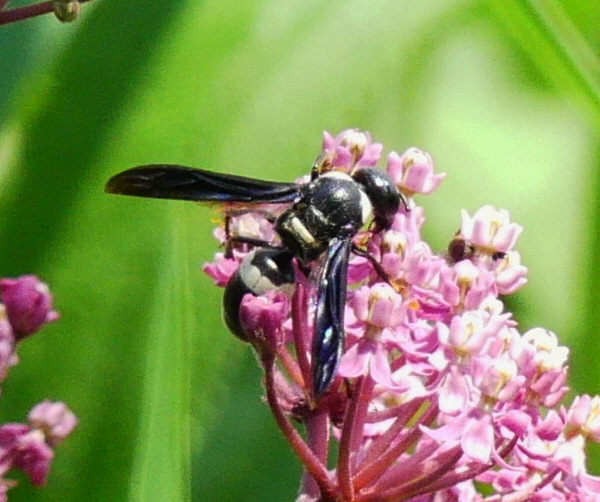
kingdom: Animalia
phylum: Arthropoda
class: Insecta
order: Hymenoptera
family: Eumenidae
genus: Monobia
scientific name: Monobia quadridens
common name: Four-toothed mason wasp
